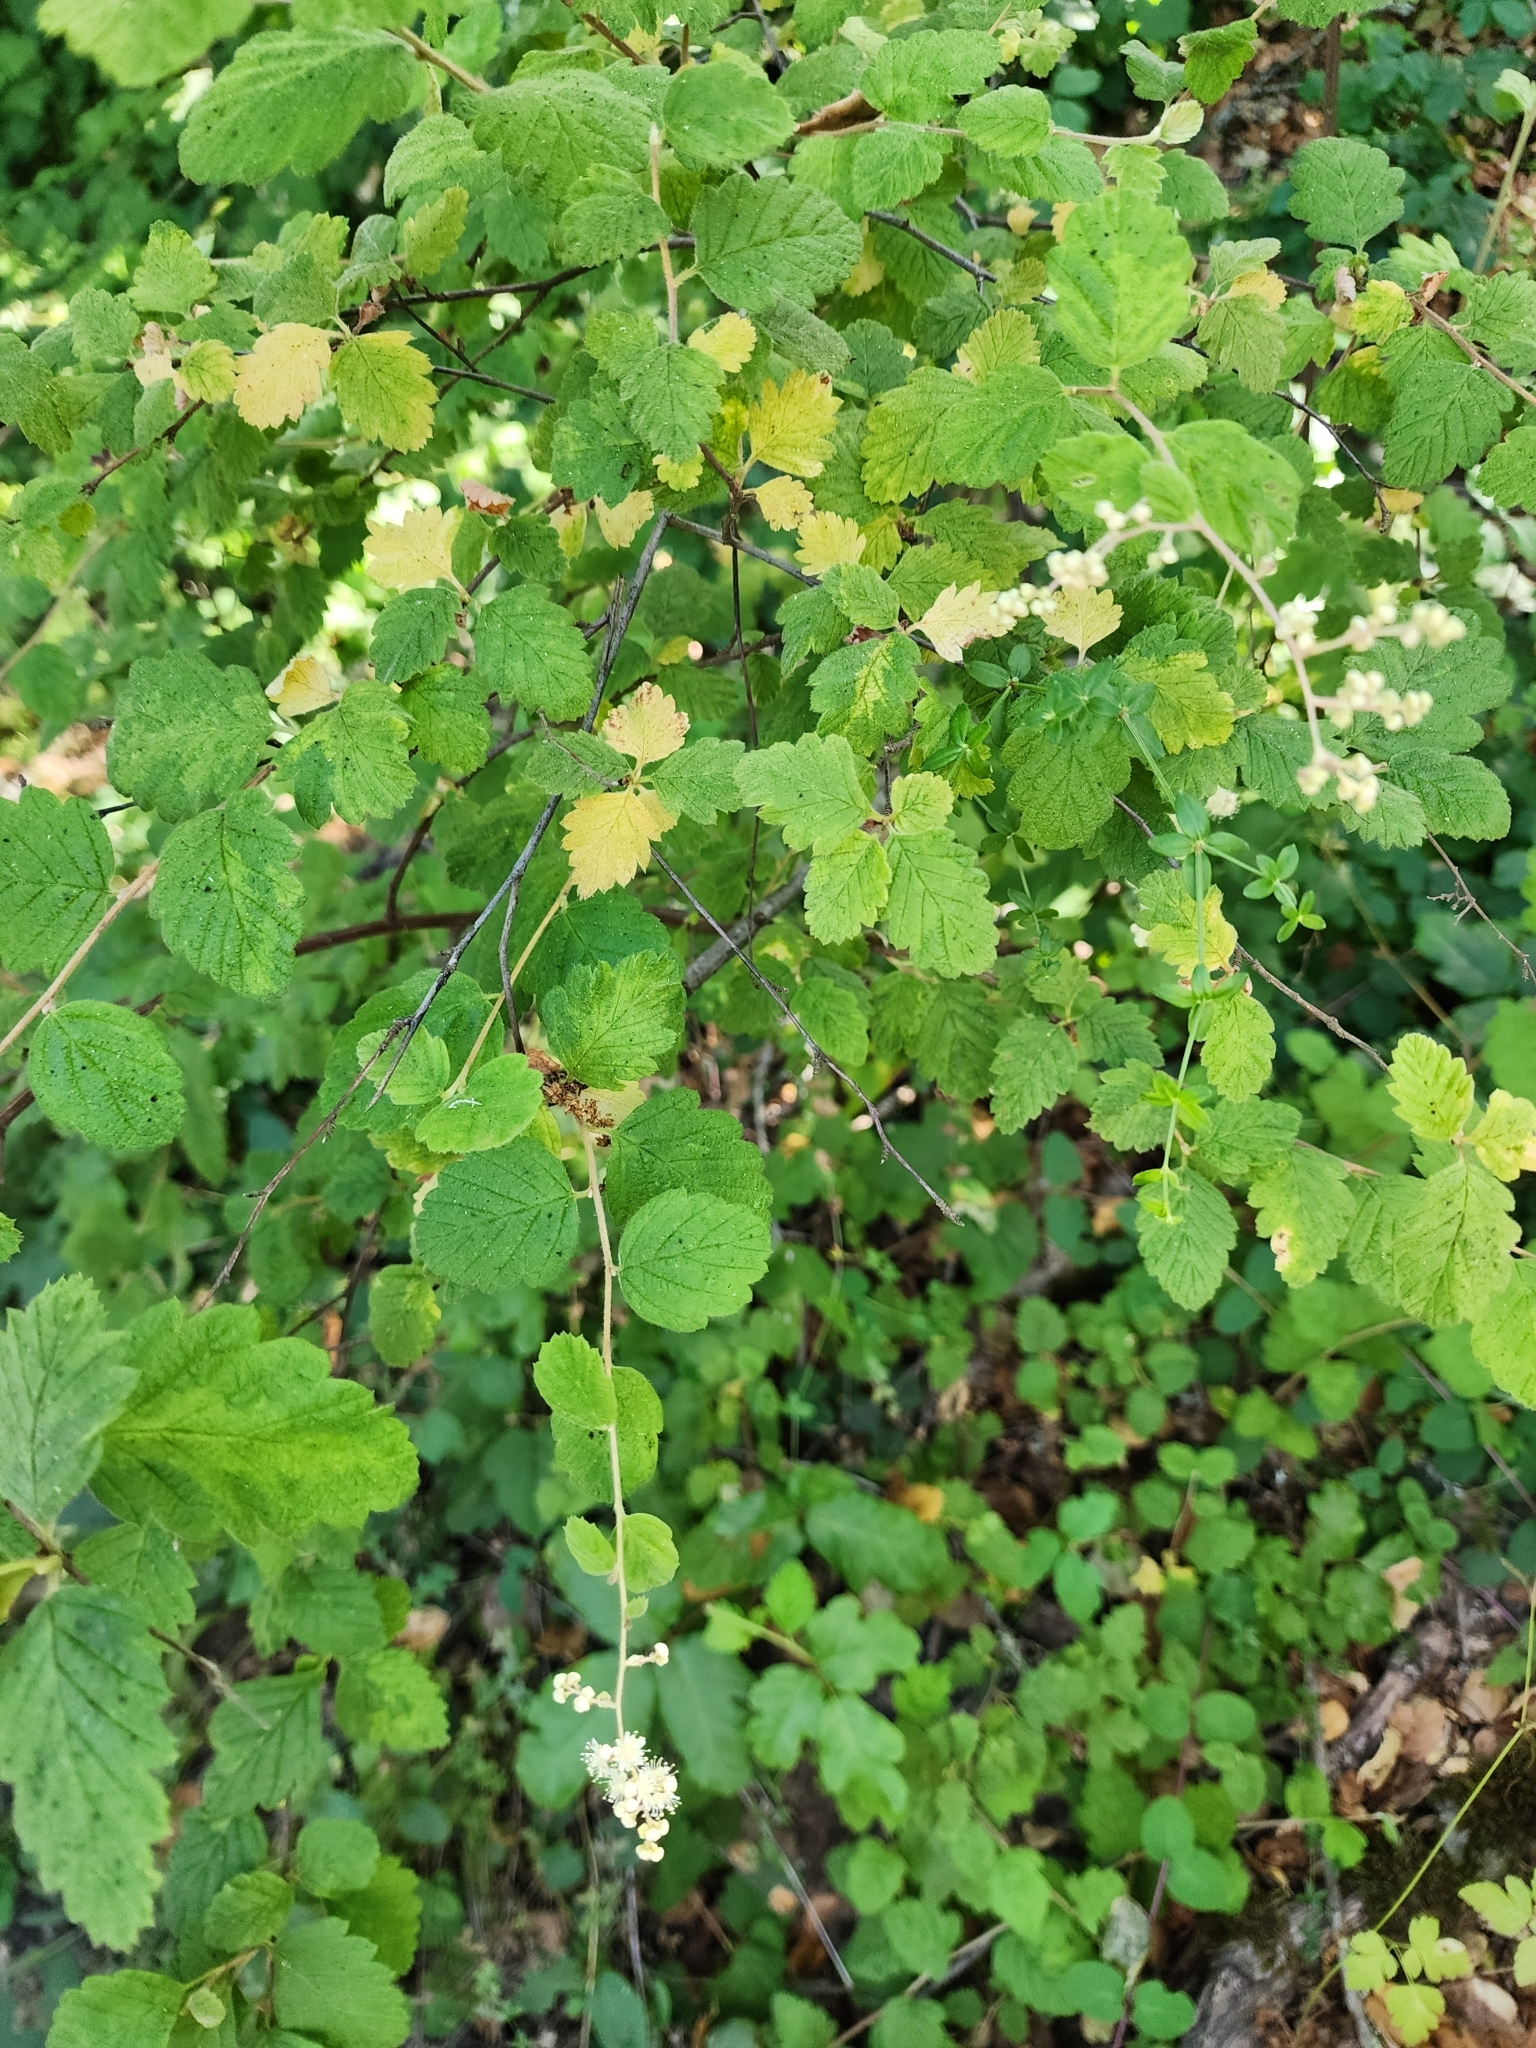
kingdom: Plantae
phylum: Tracheophyta
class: Magnoliopsida
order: Rosales
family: Rosaceae
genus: Holodiscus
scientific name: Holodiscus discolor
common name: Oceanspray
